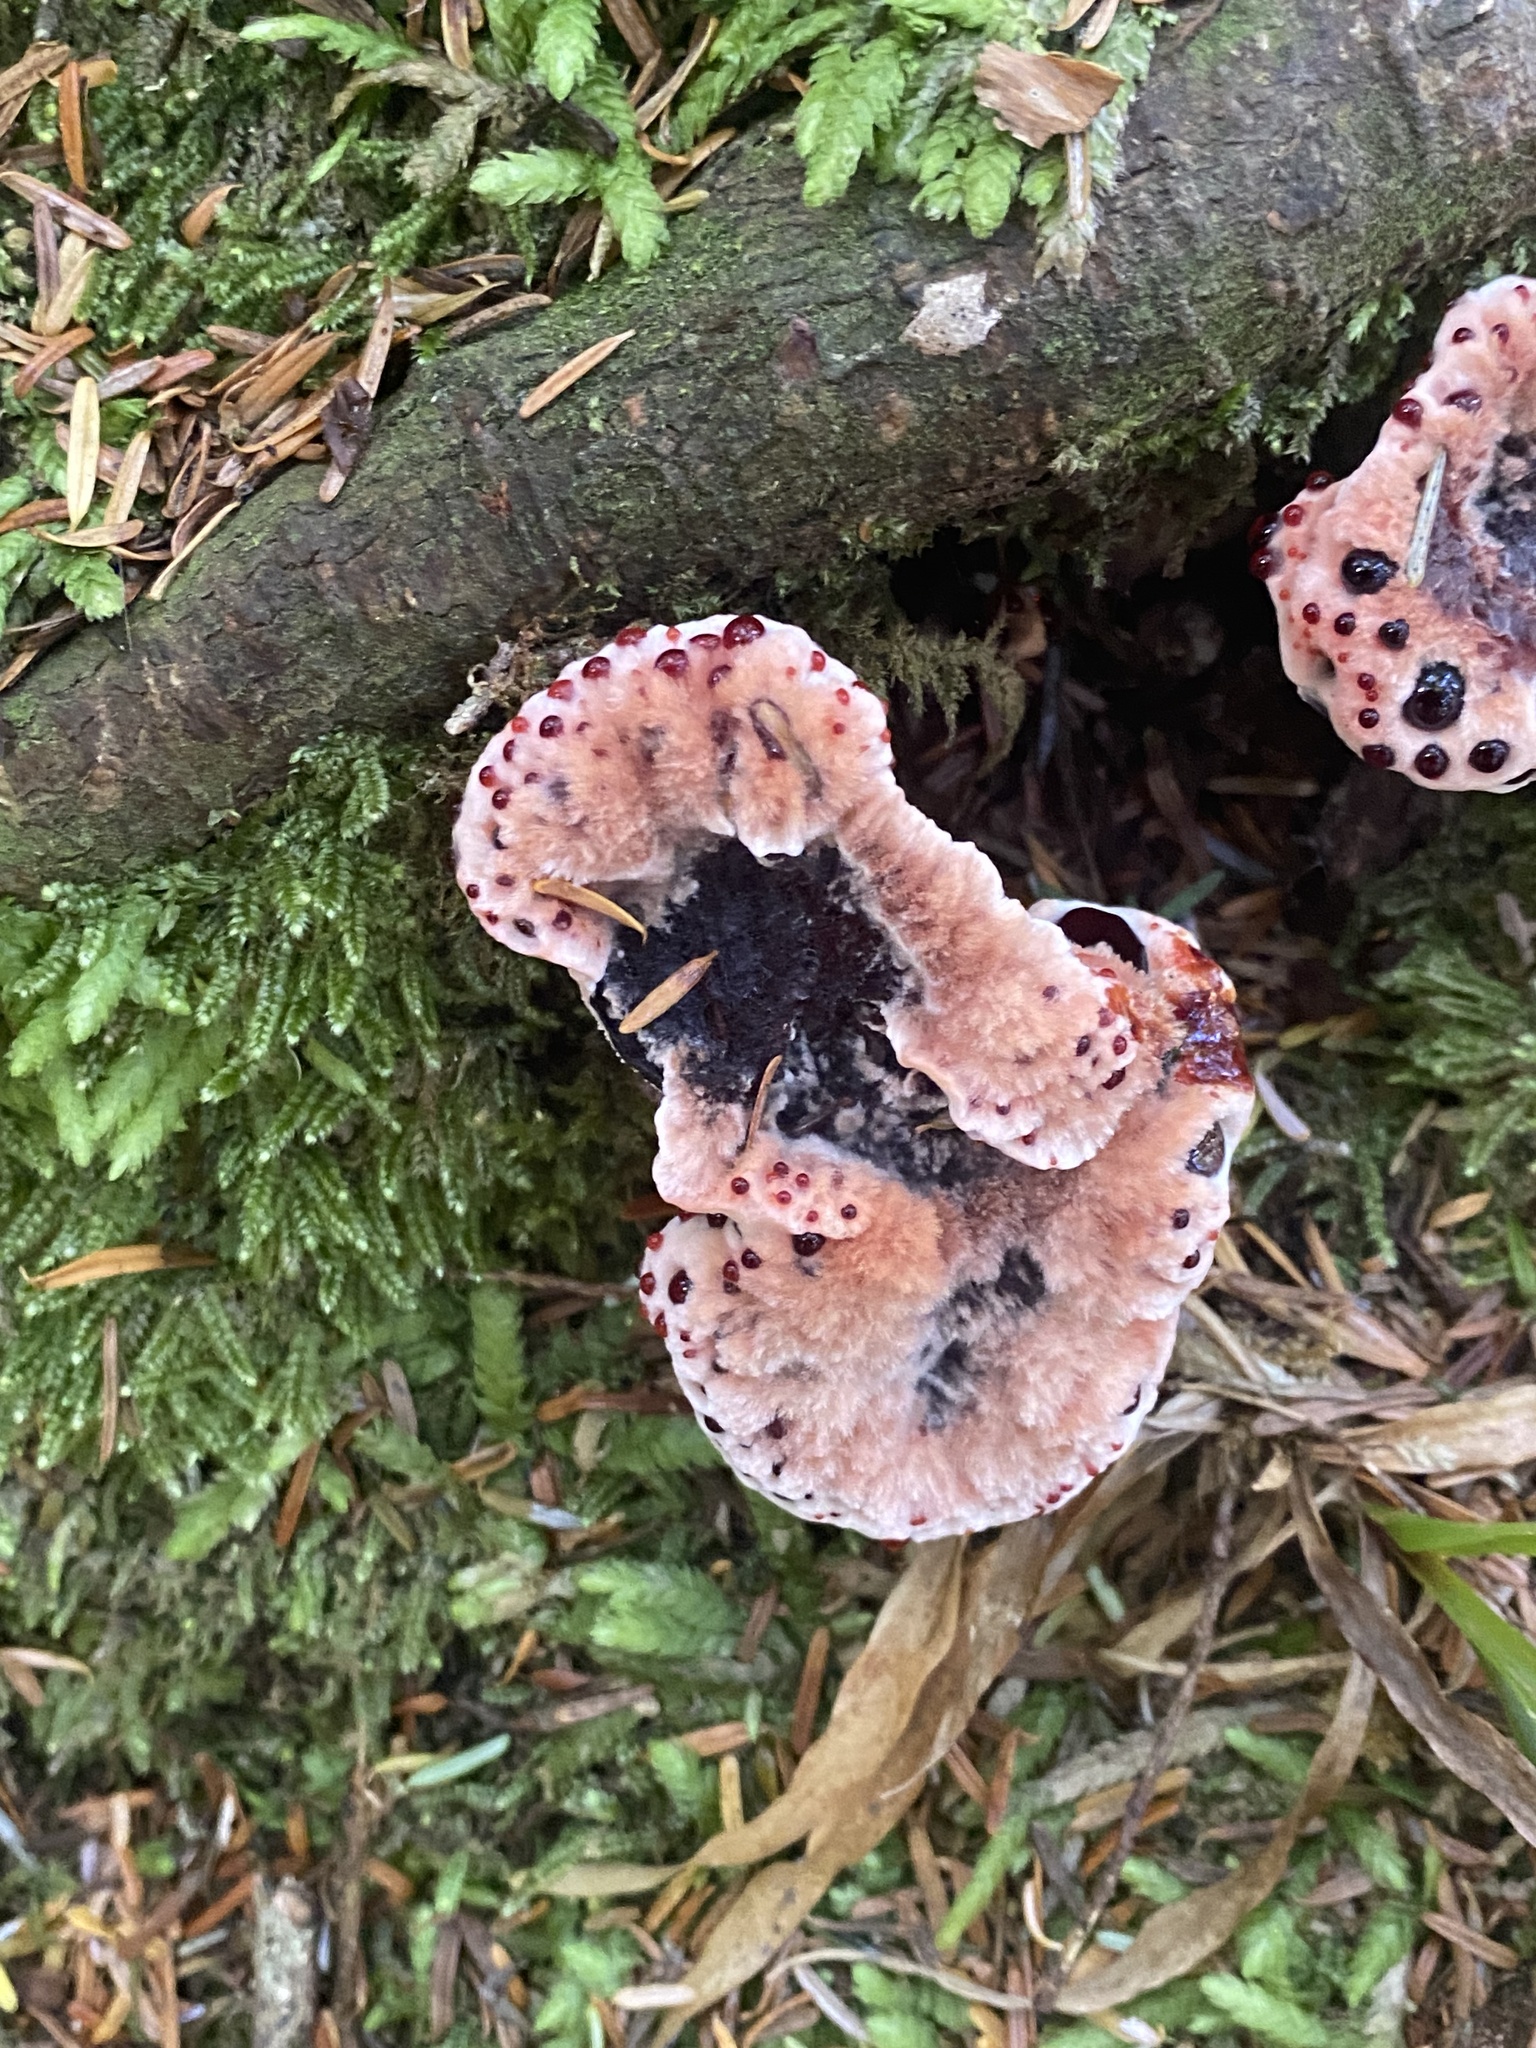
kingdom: Fungi
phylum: Basidiomycota
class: Agaricomycetes
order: Thelephorales
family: Bankeraceae
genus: Hydnellum
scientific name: Hydnellum peckii
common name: Devil's tooth
